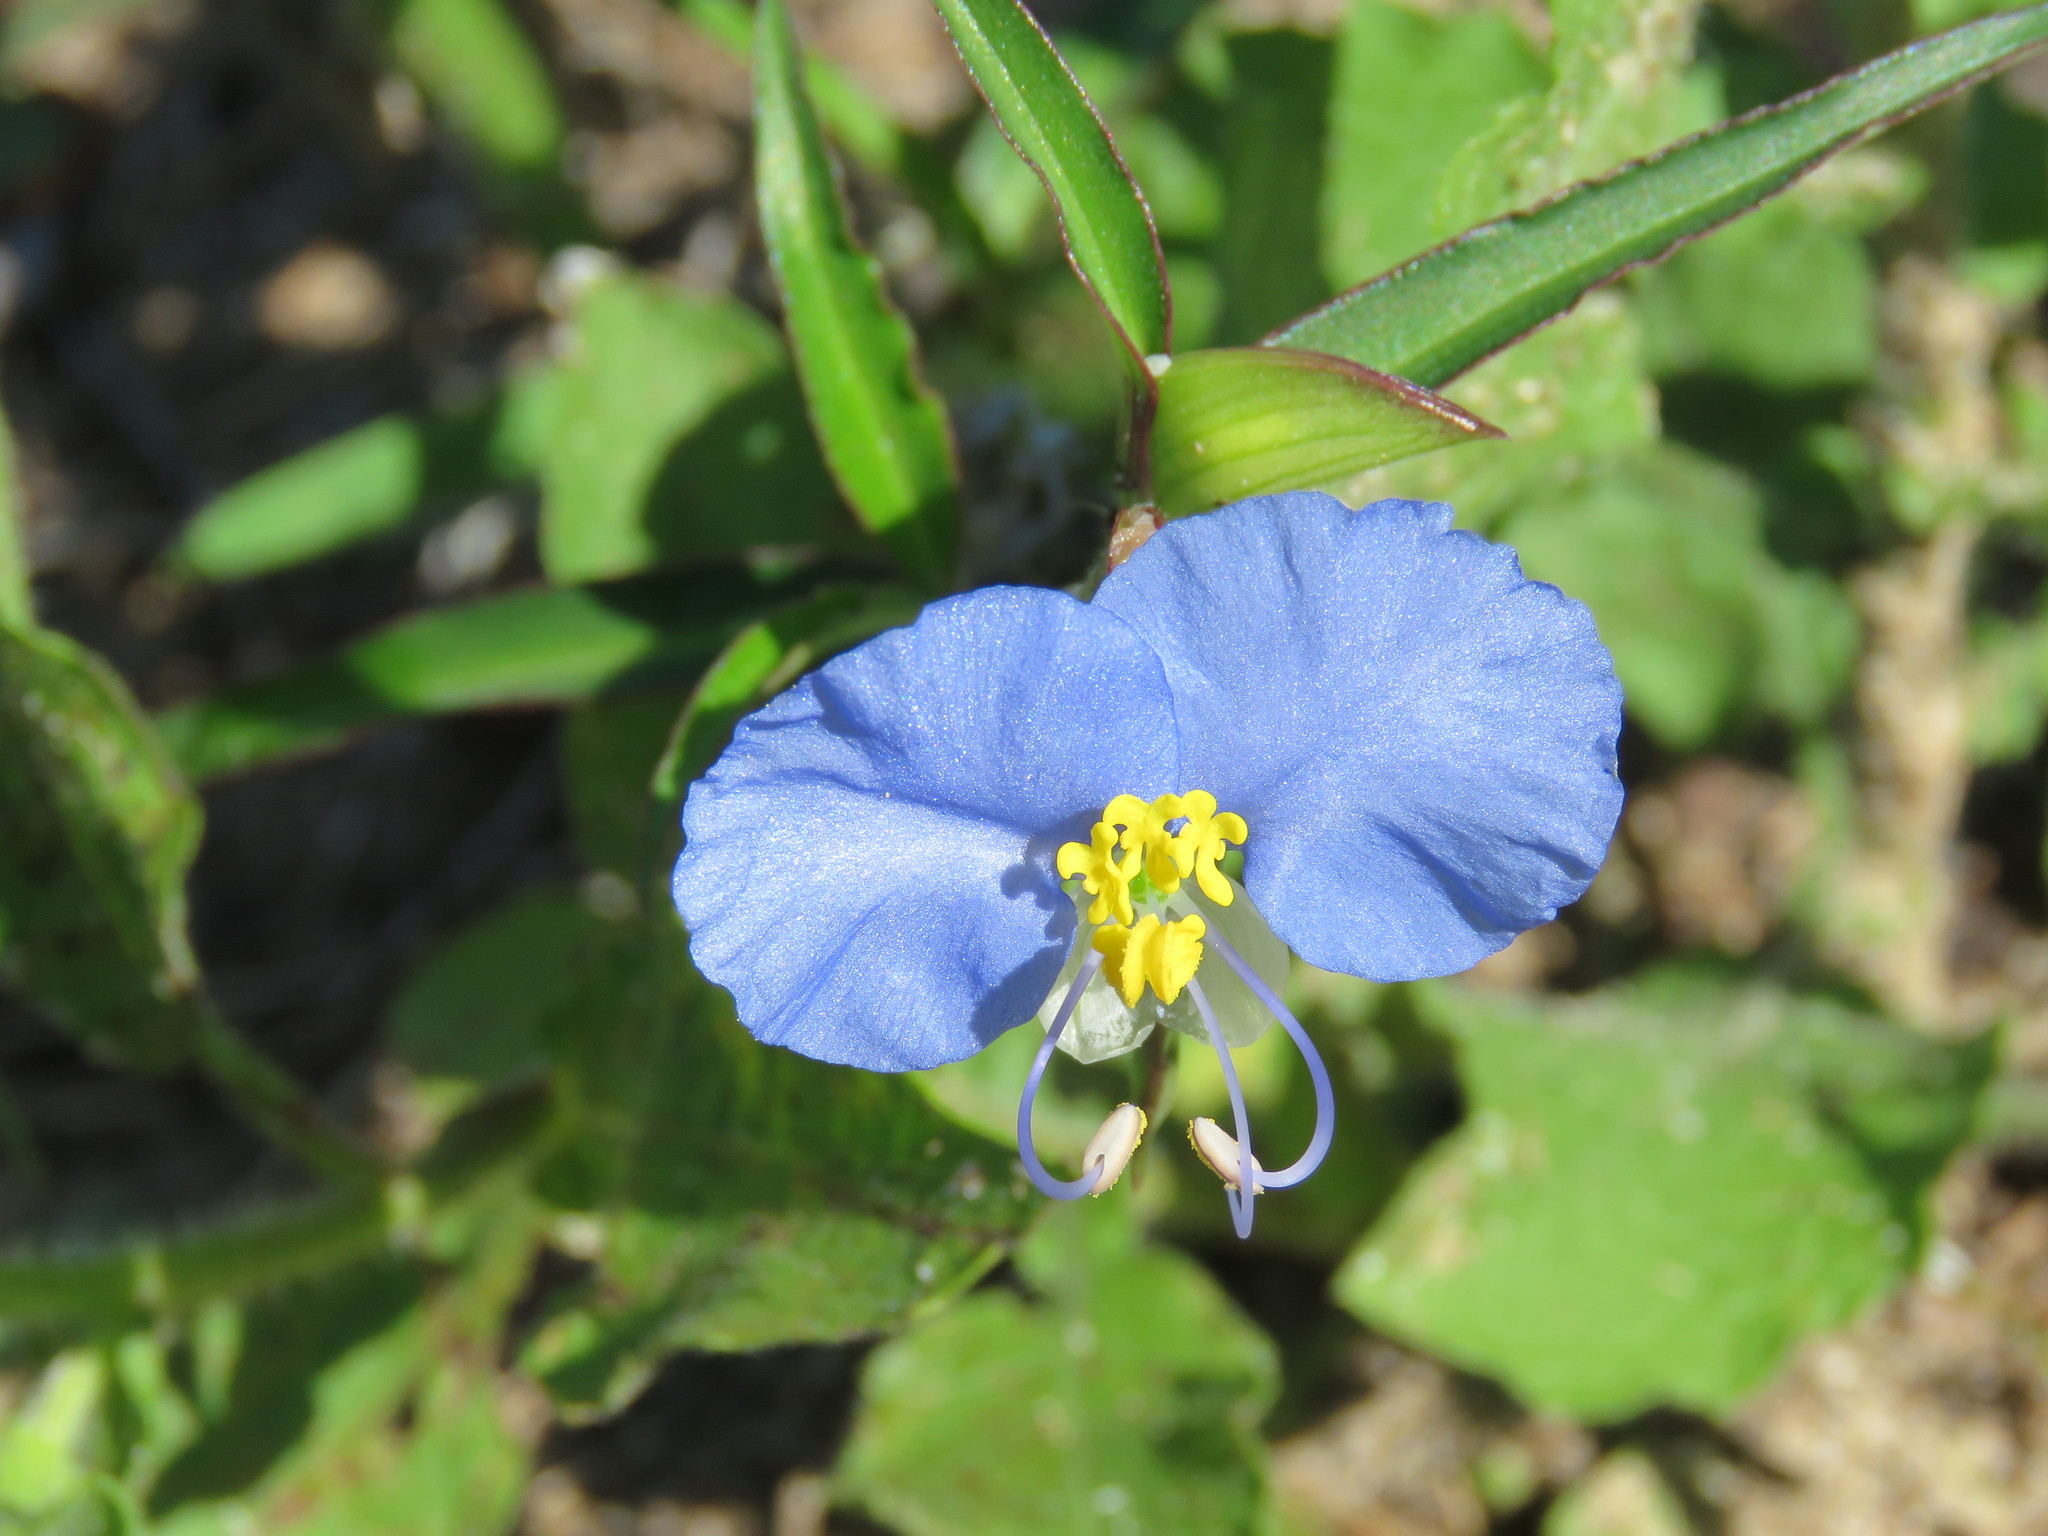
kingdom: Plantae
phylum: Tracheophyta
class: Liliopsida
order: Commelinales
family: Commelinaceae
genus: Commelina
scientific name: Commelina erecta
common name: Blousel blommetjie
